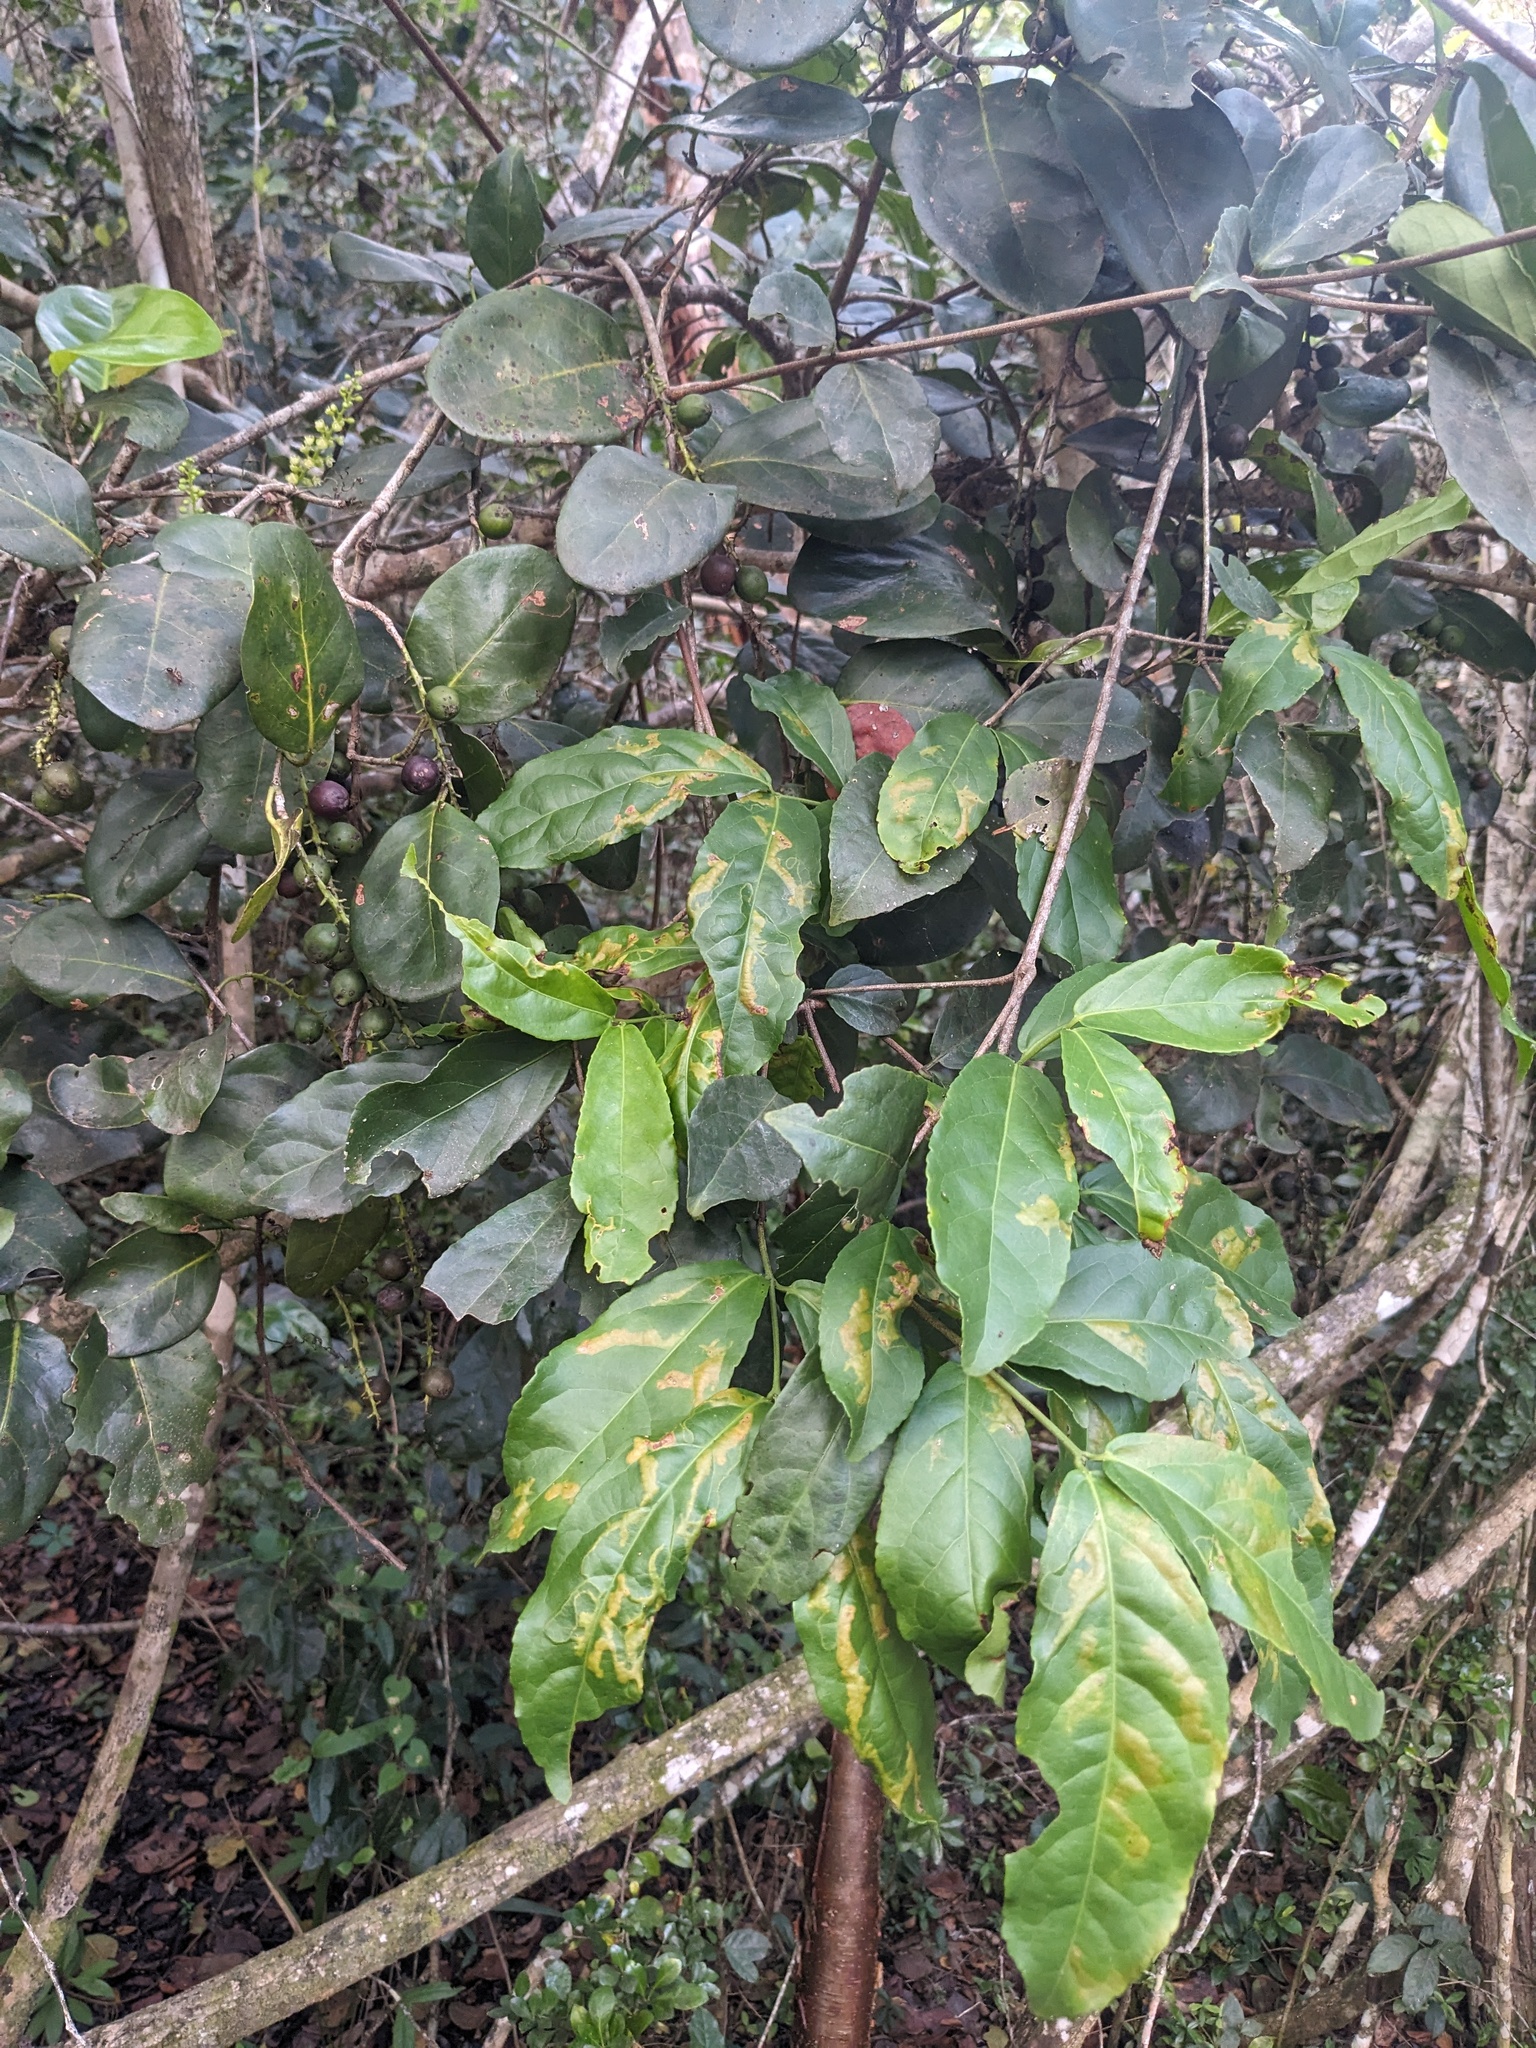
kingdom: Plantae
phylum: Tracheophyta
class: Magnoliopsida
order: Caryophyllales
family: Polygonaceae
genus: Coccoloba
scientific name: Coccoloba diversifolia
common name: Pigeon-plum
